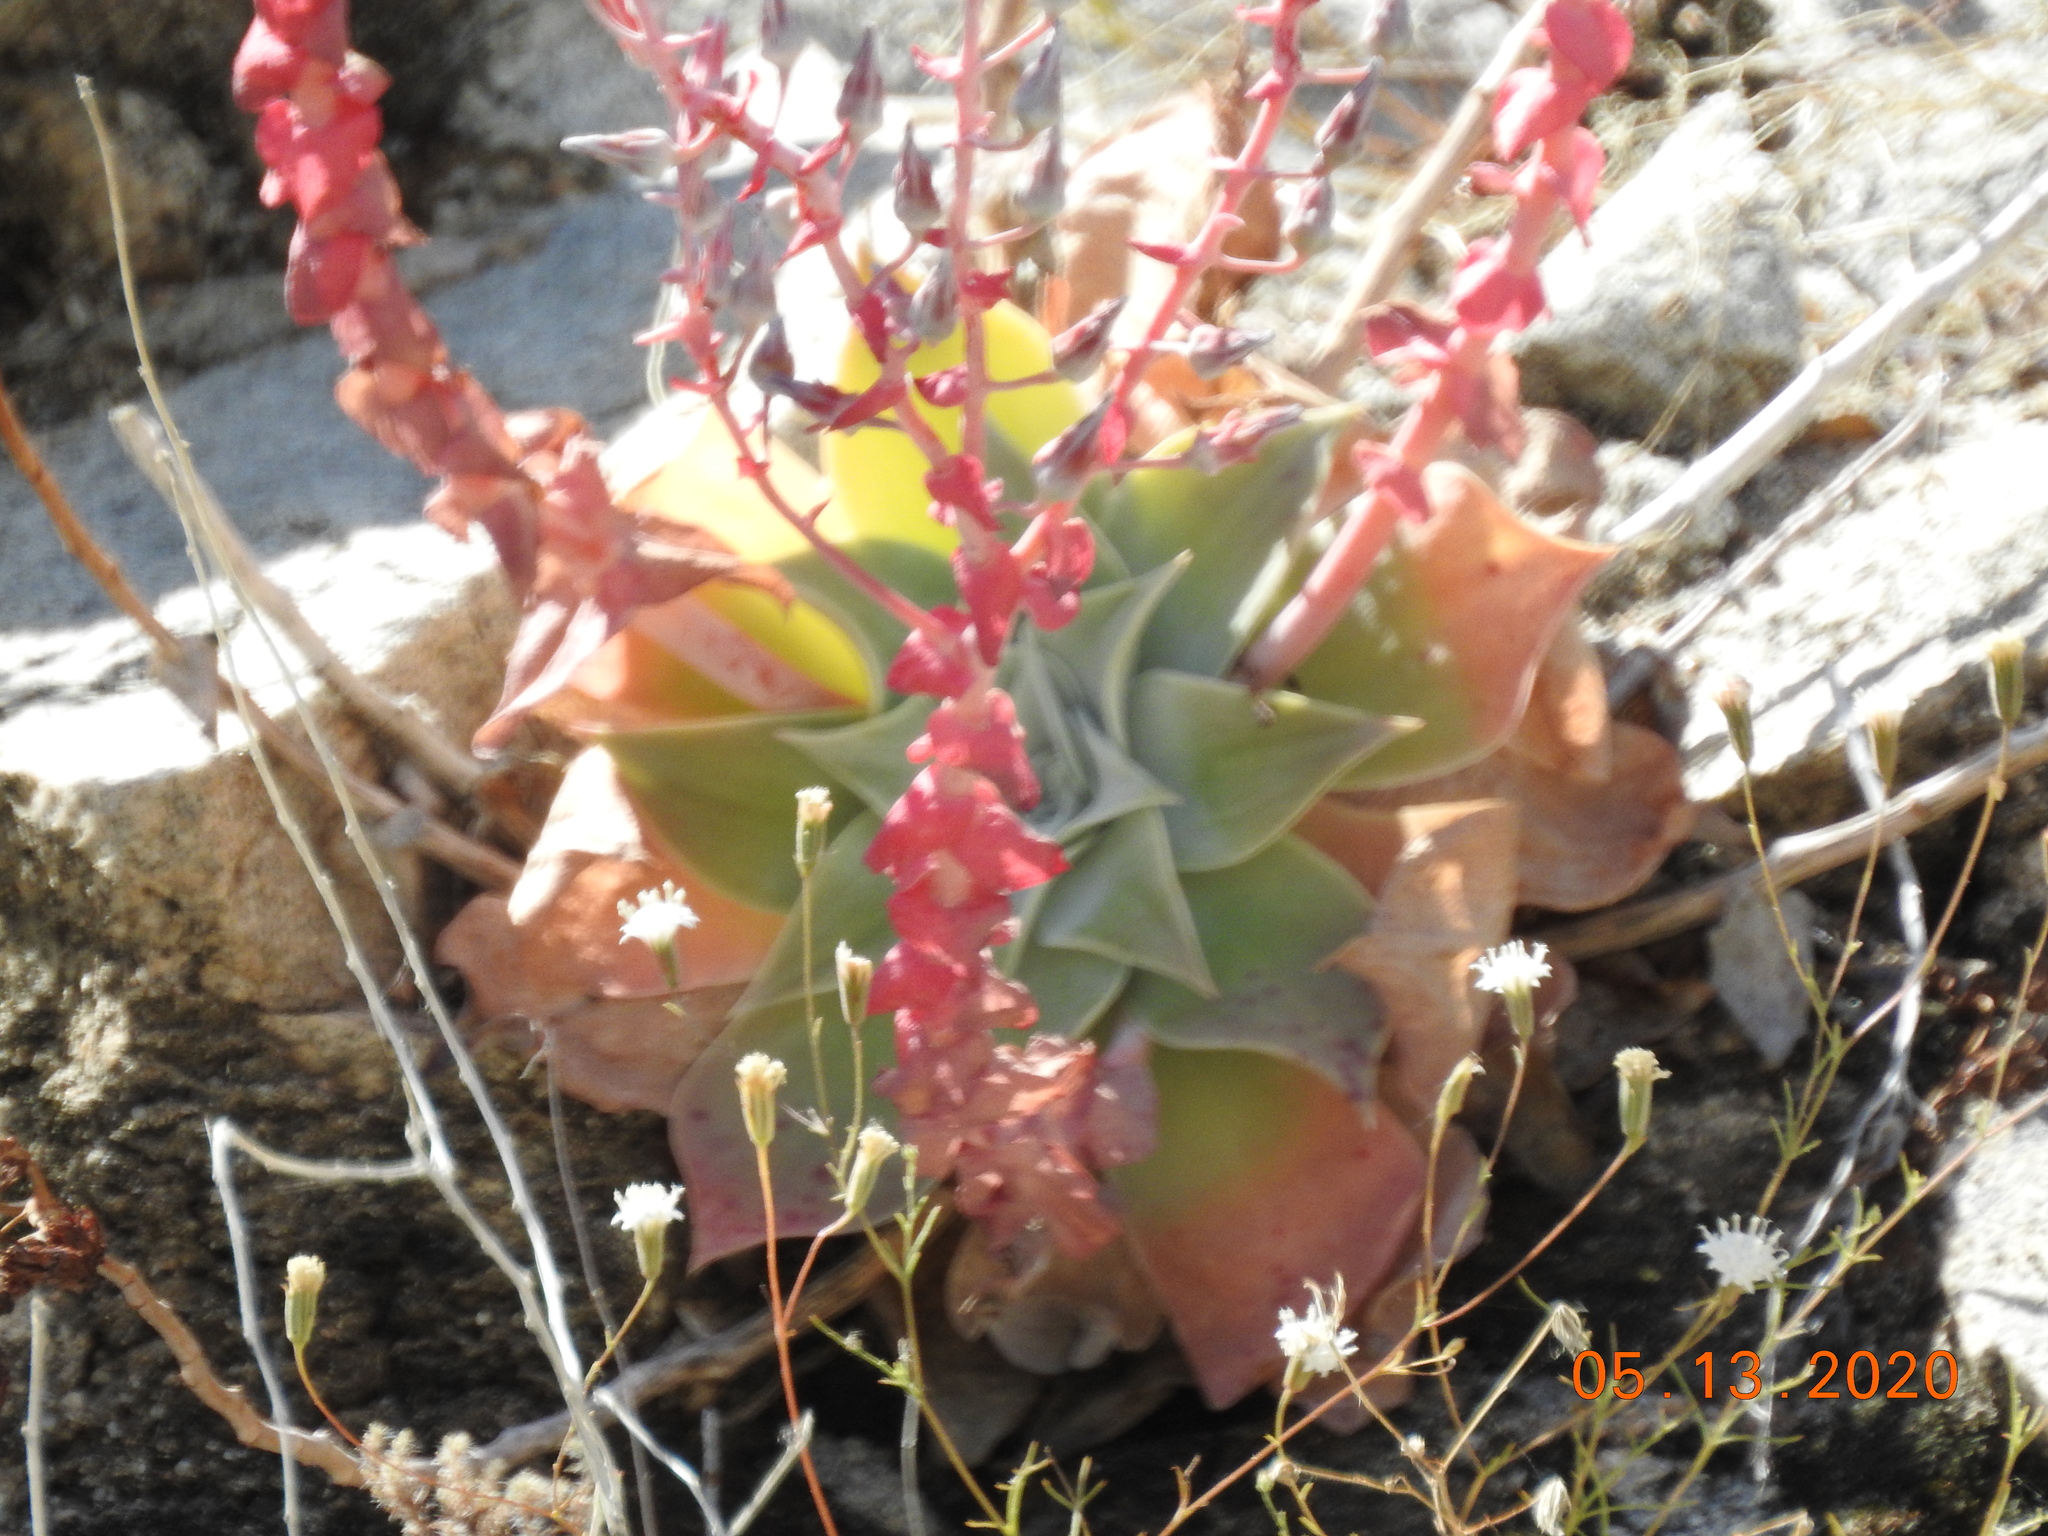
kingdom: Plantae
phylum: Tracheophyta
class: Magnoliopsida
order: Saxifragales
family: Crassulaceae
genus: Dudleya
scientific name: Dudleya arizonica
